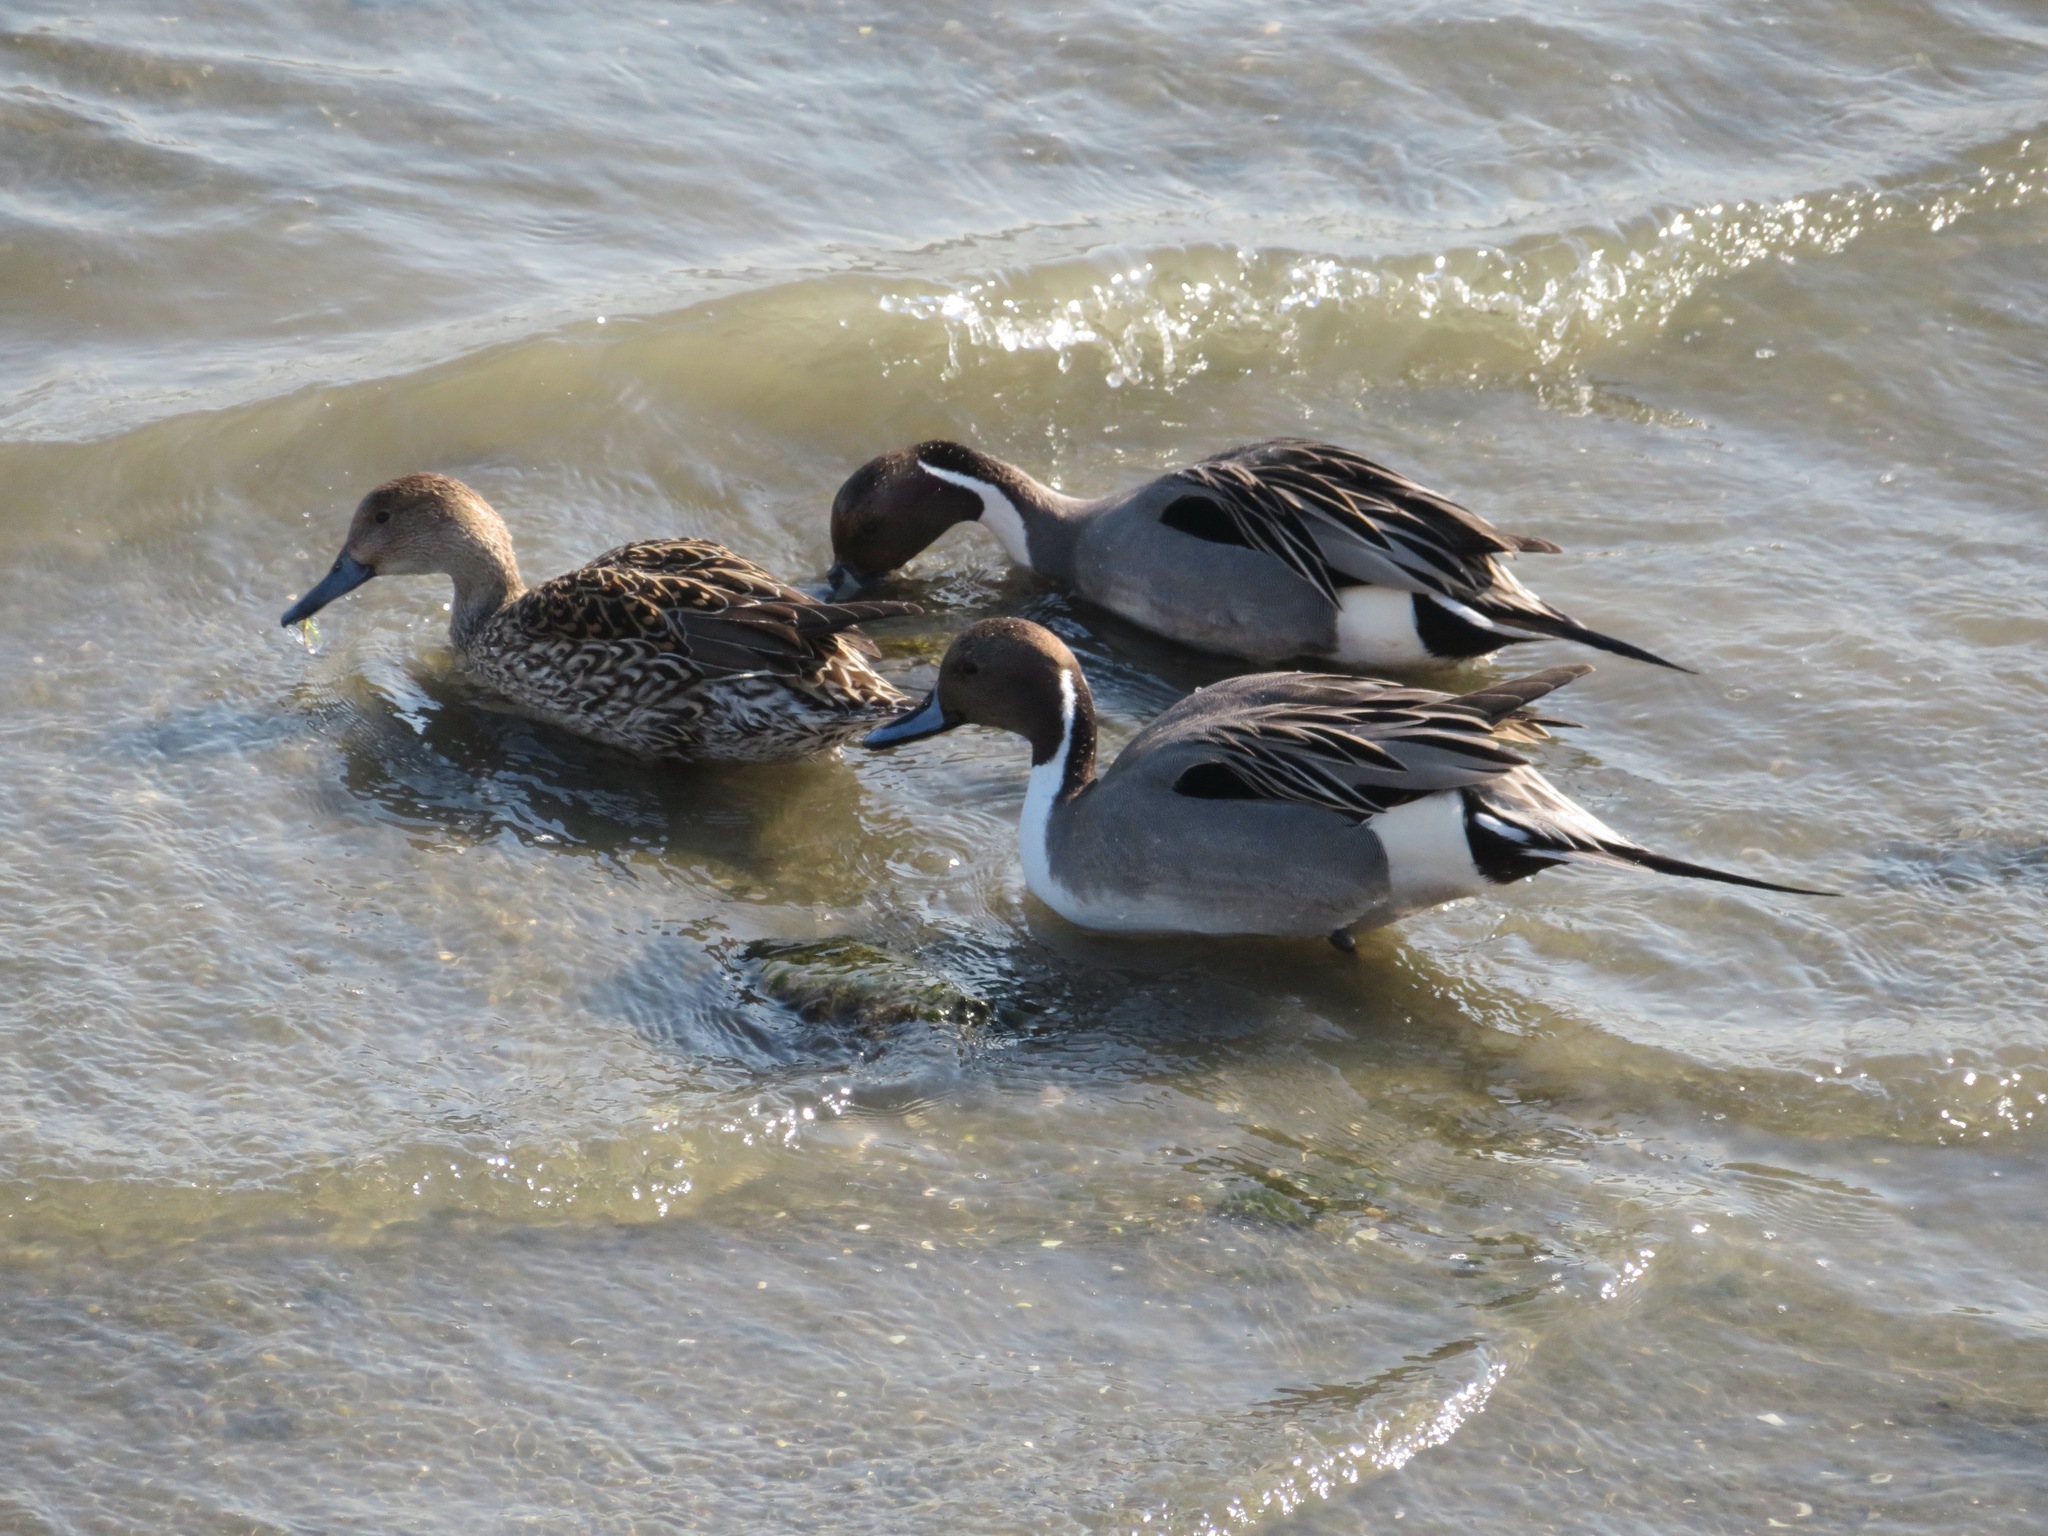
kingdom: Animalia
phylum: Chordata
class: Aves
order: Anseriformes
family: Anatidae
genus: Anas
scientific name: Anas acuta
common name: Northern pintail
